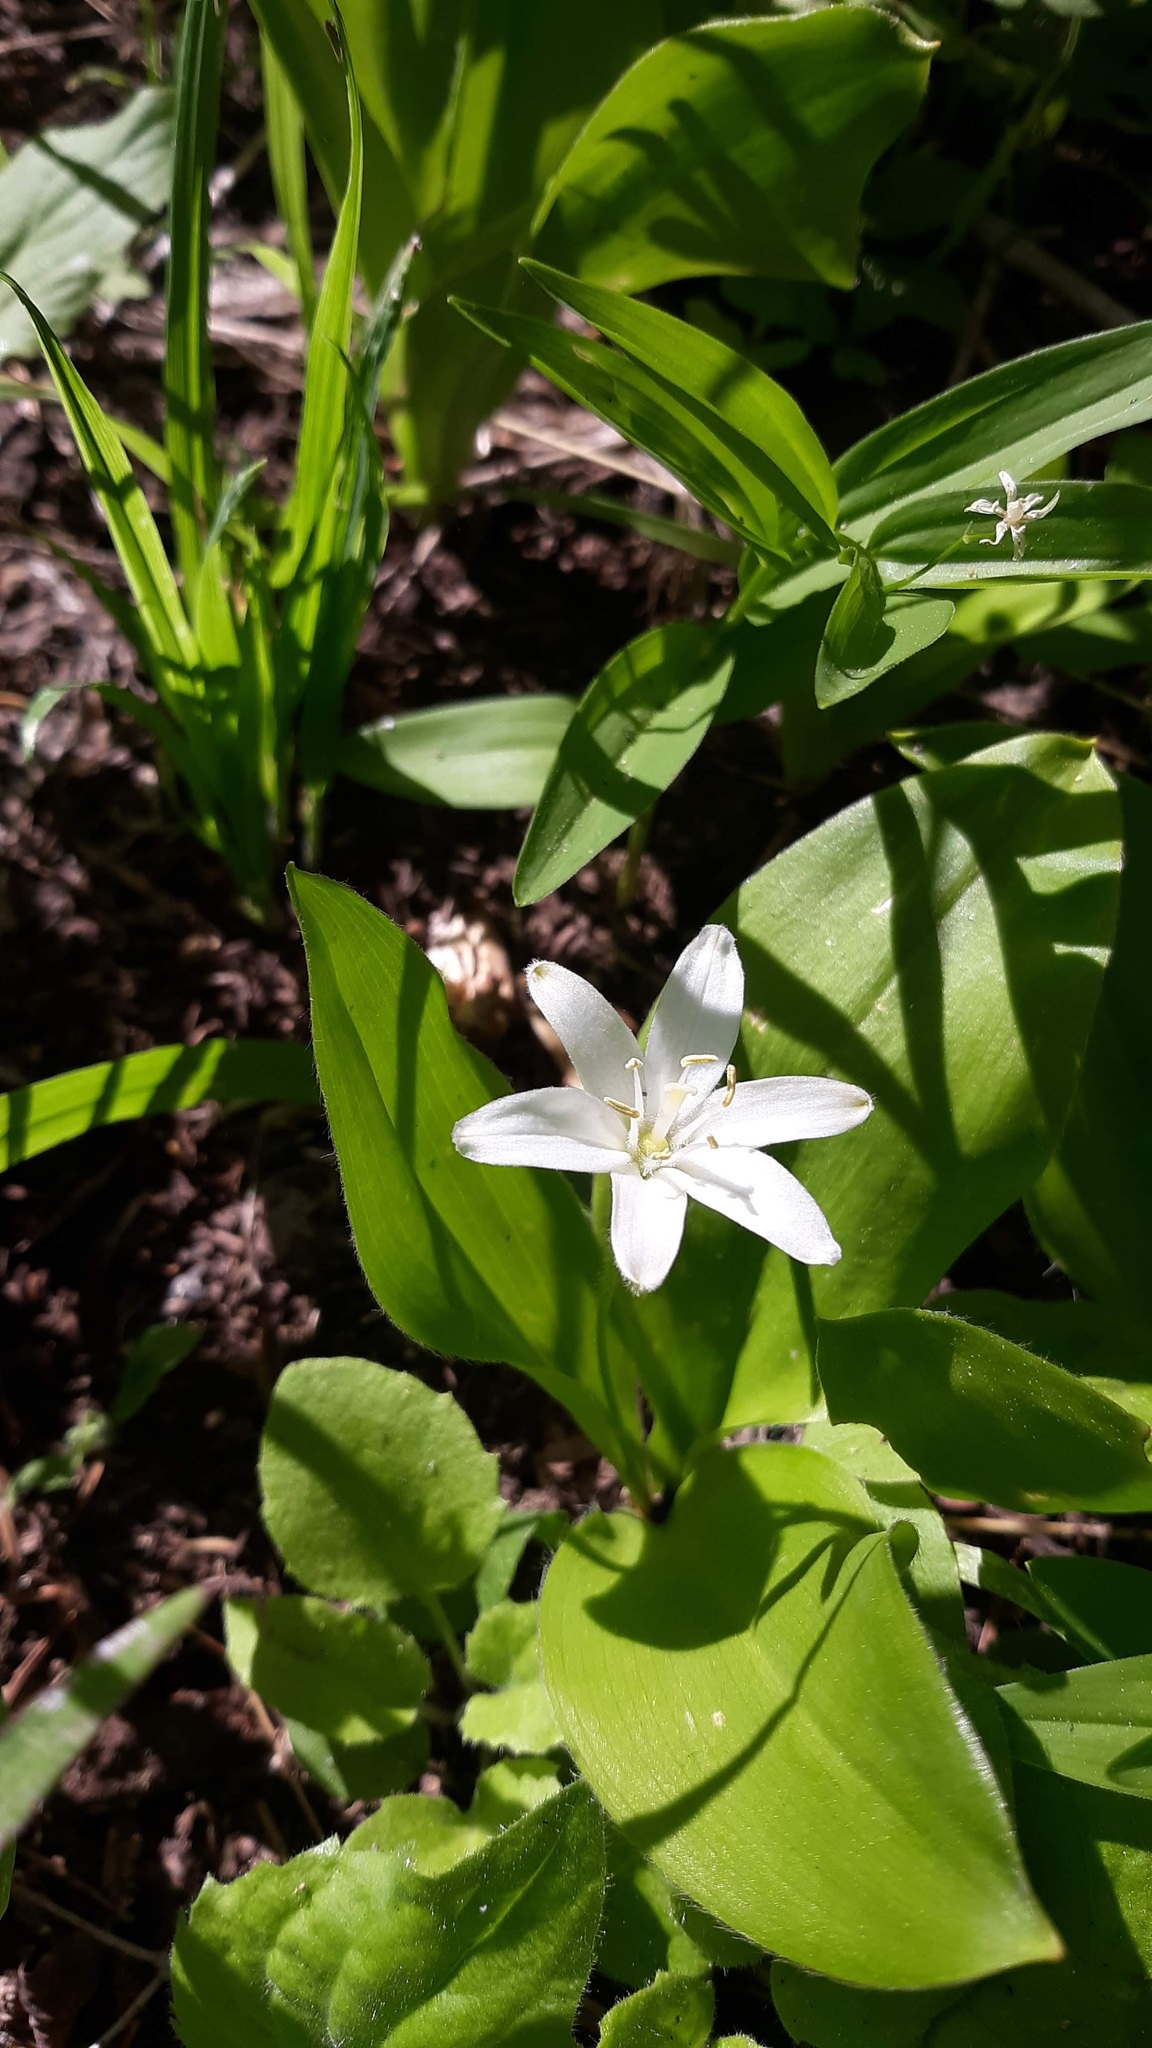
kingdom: Plantae
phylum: Tracheophyta
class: Liliopsida
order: Liliales
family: Liliaceae
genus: Clintonia
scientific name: Clintonia uniflora
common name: Queen's cup
